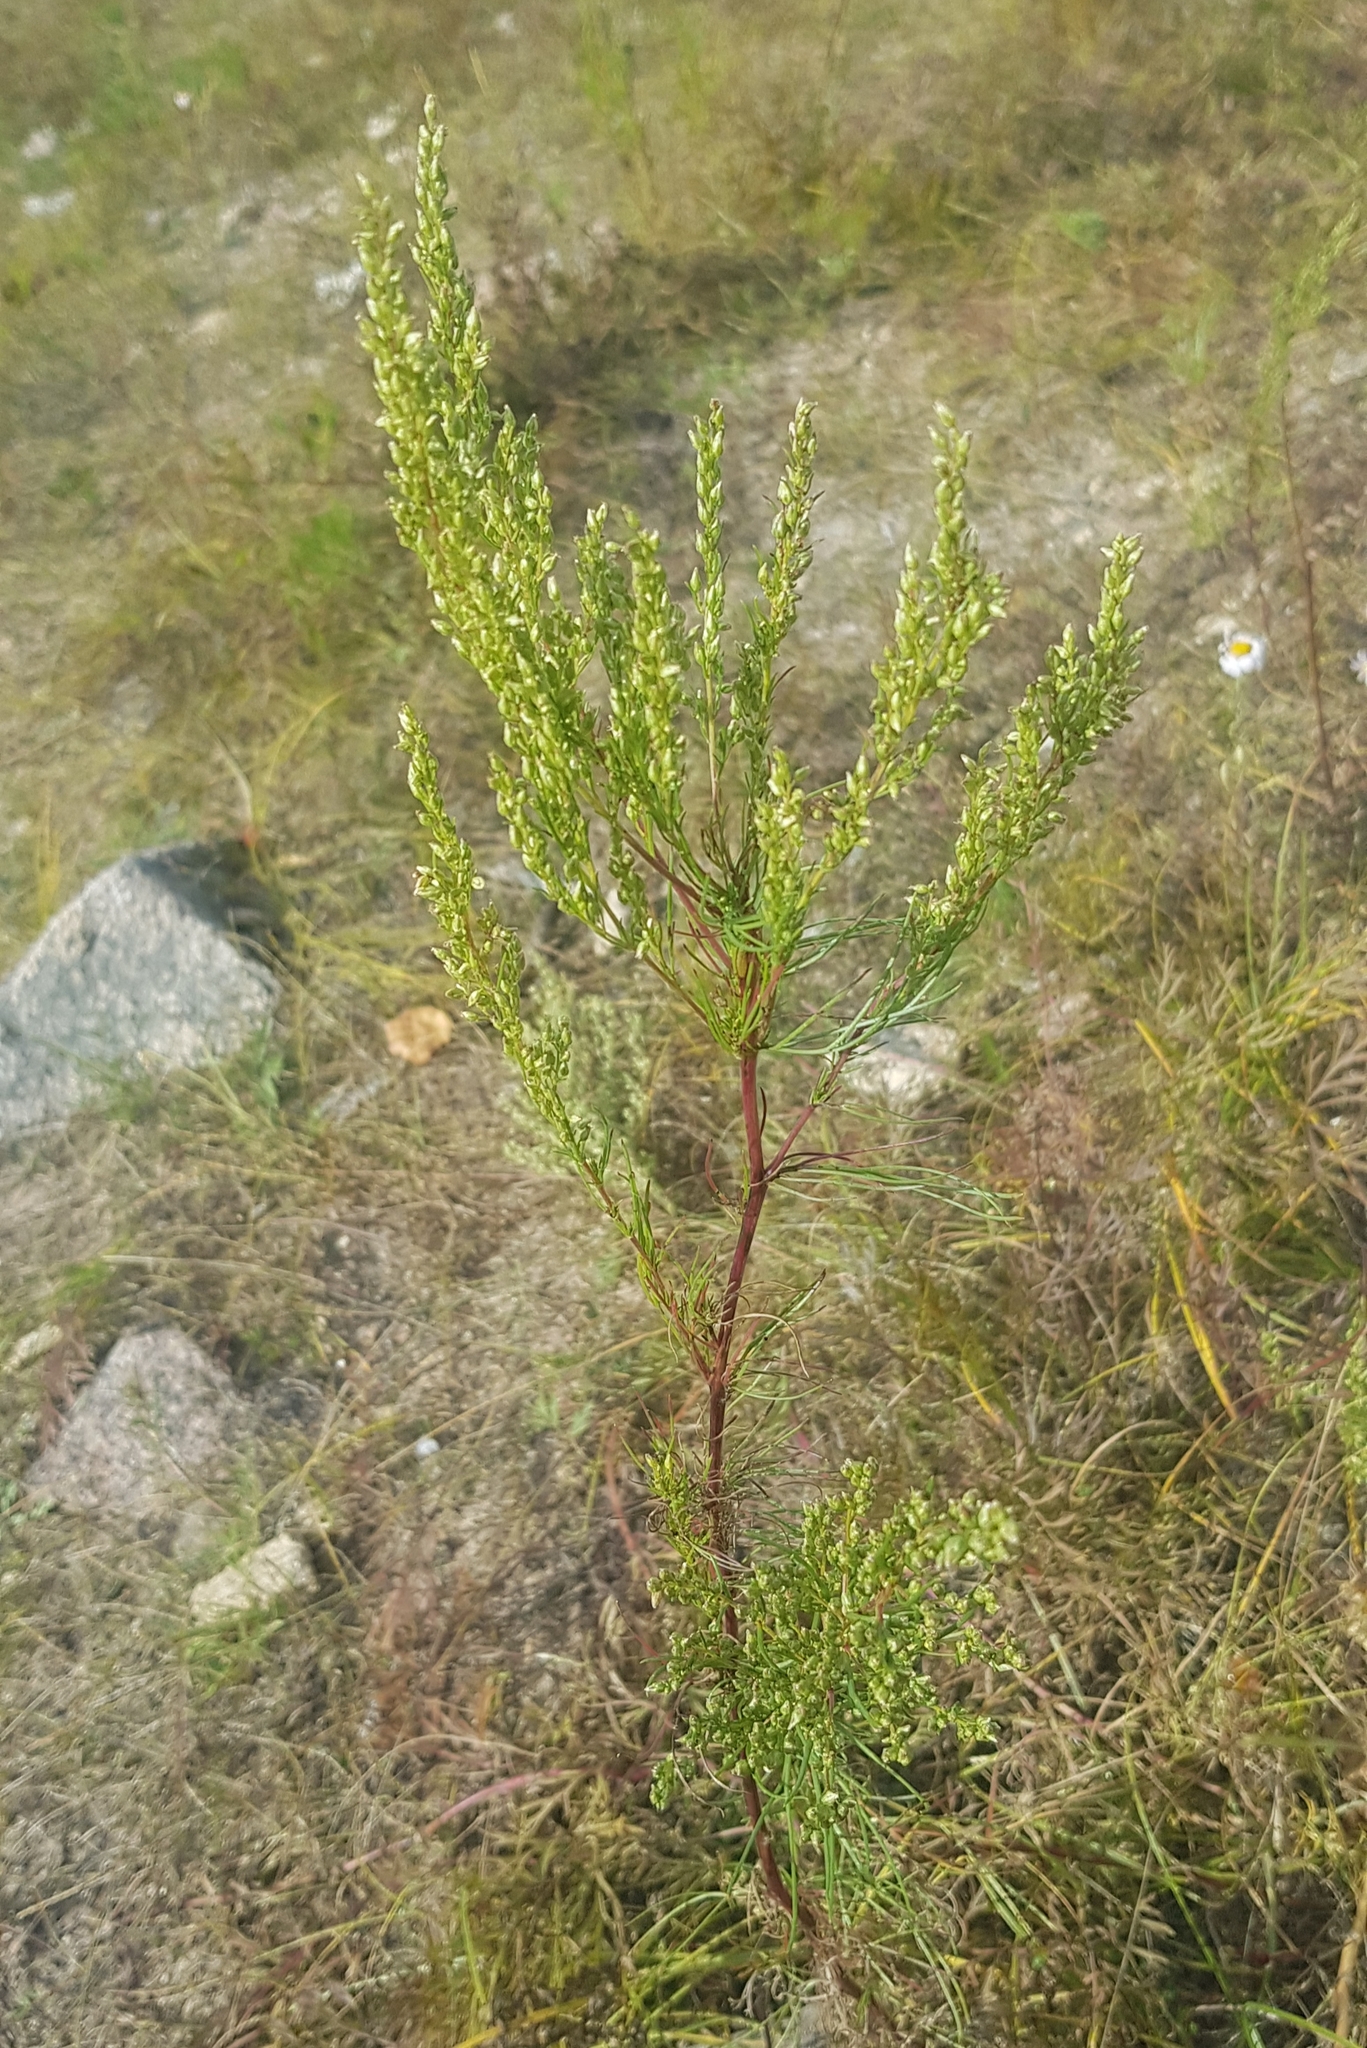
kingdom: Plantae
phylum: Tracheophyta
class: Magnoliopsida
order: Asterales
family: Asteraceae
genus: Artemisia
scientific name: Artemisia pubescens
